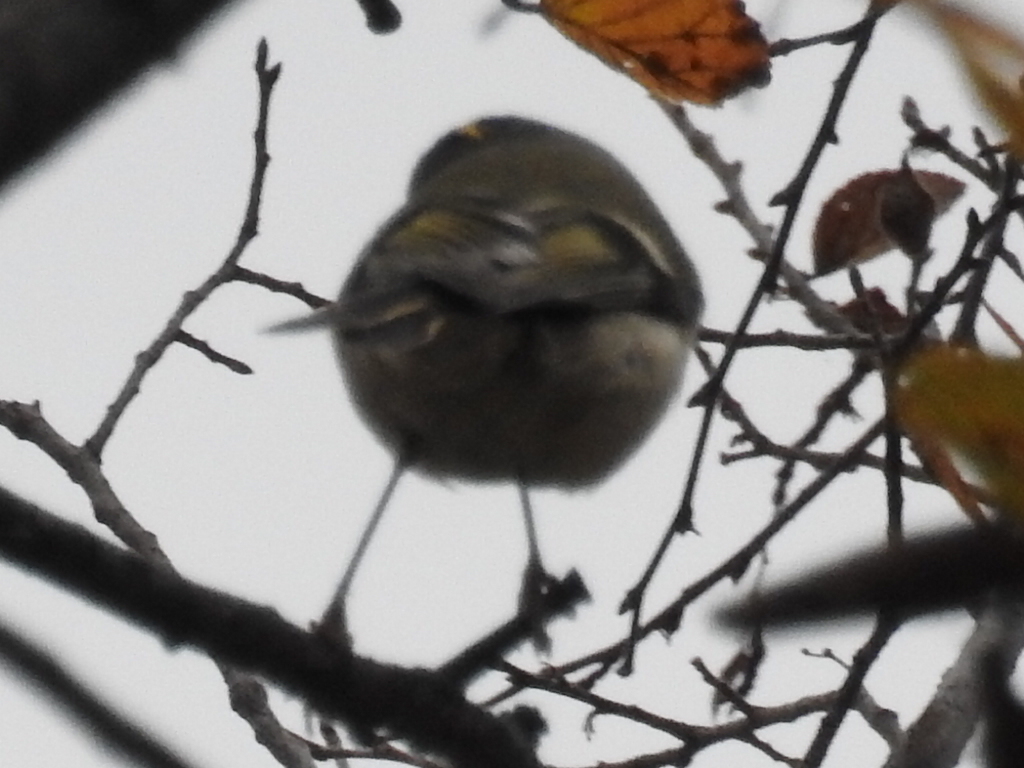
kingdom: Animalia
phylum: Chordata
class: Aves
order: Passeriformes
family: Regulidae
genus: Regulus
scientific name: Regulus satrapa
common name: Golden-crowned kinglet
